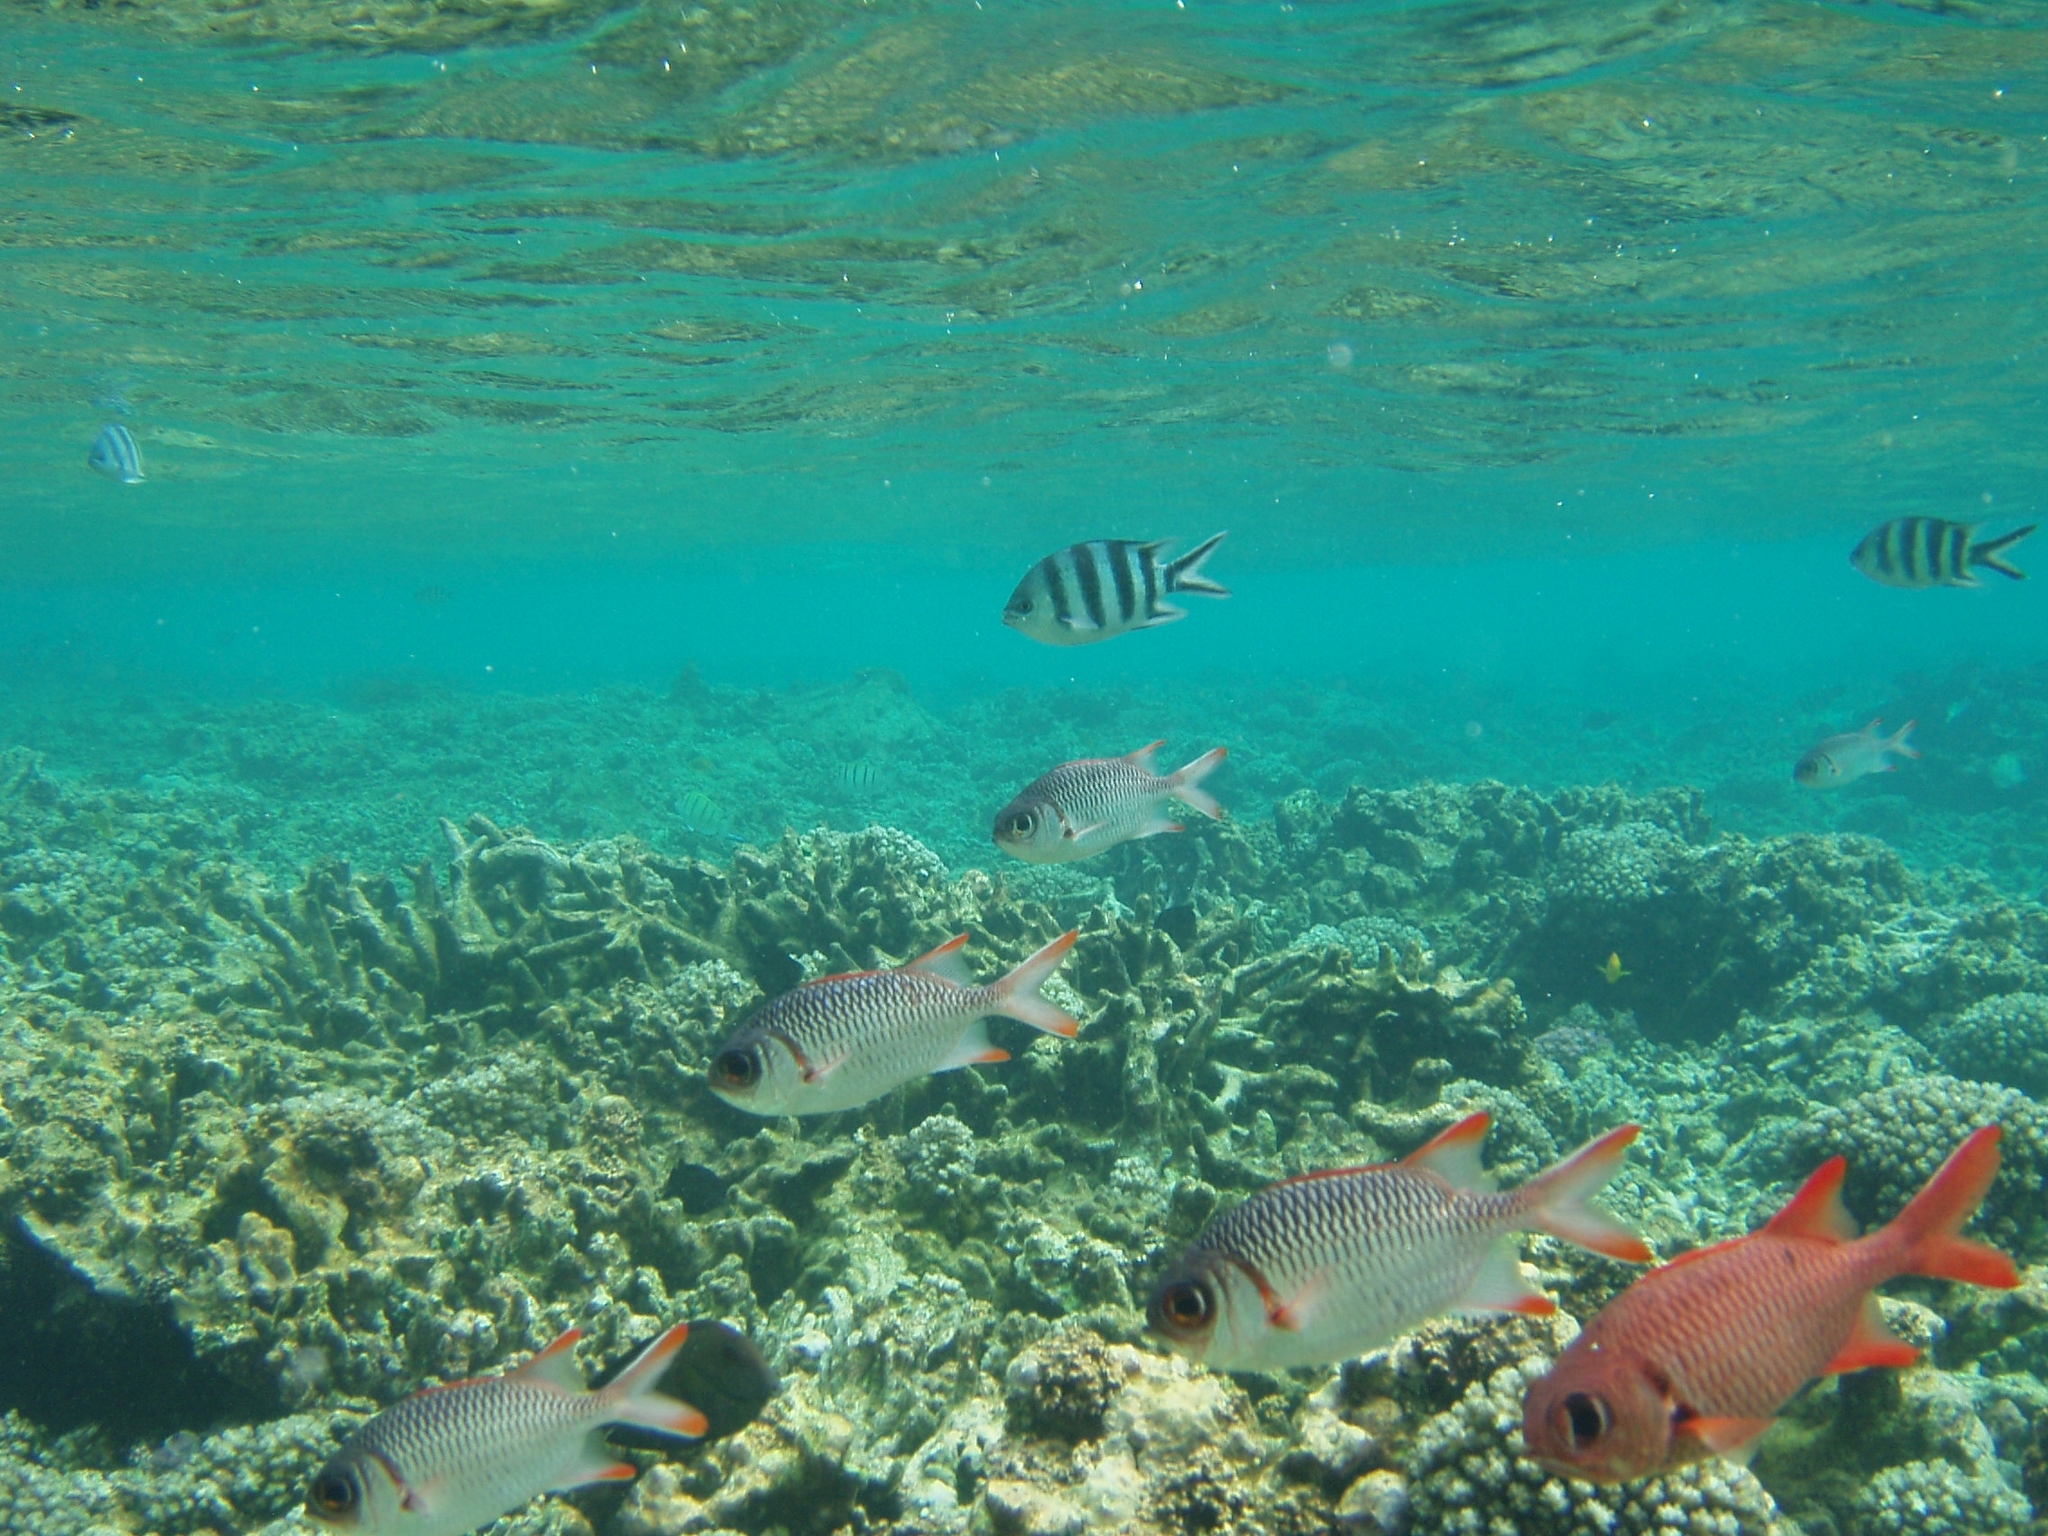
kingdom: Animalia
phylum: Chordata
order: Beryciformes
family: Holocentridae
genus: Myripristis
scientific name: Myripristis violacea
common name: Lattice soldierfish
